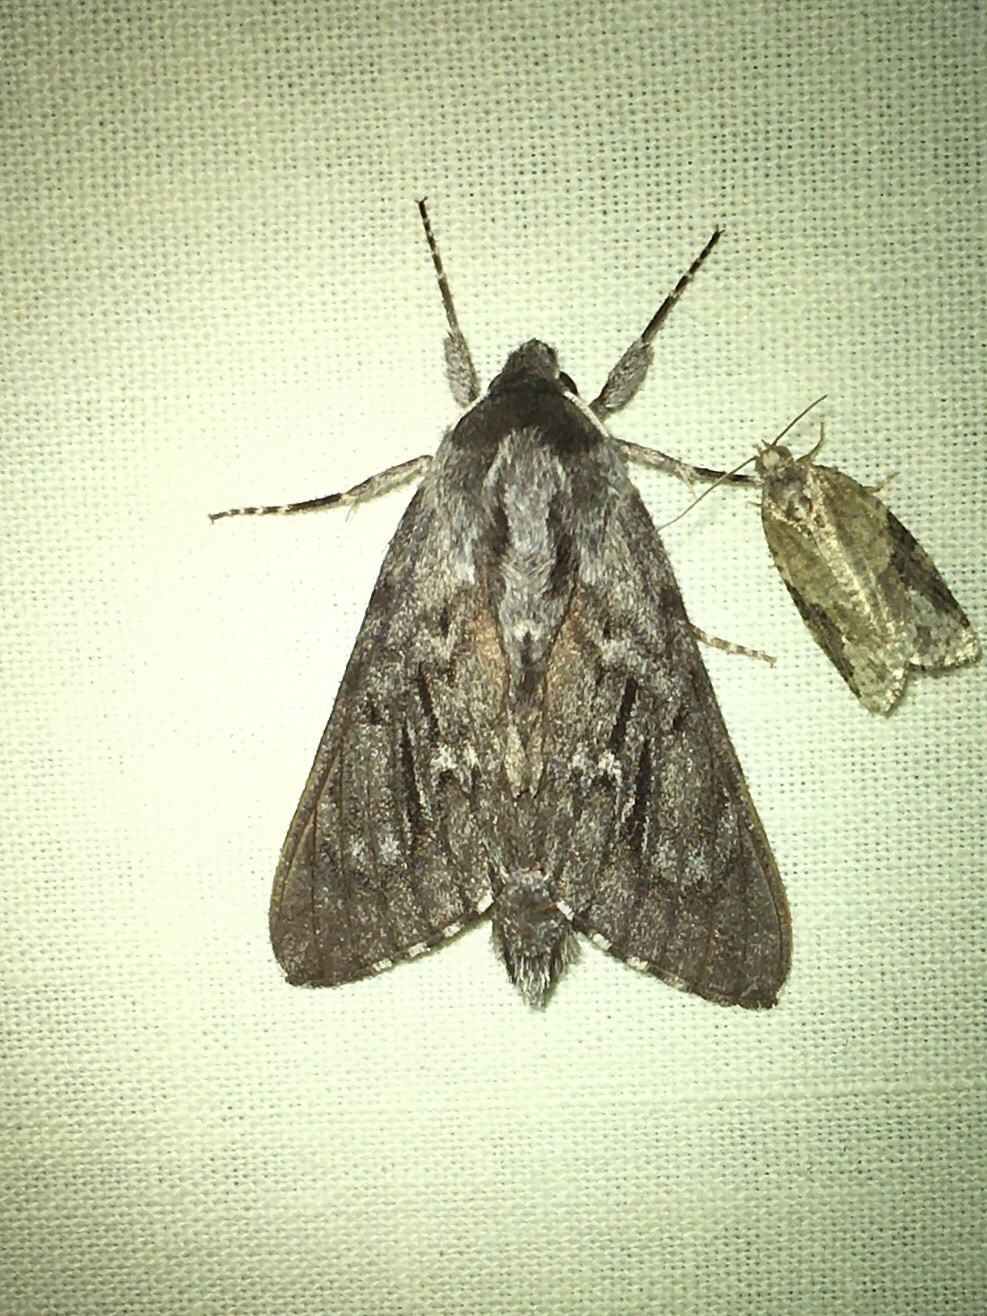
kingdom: Animalia
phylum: Arthropoda
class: Insecta
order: Lepidoptera
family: Sphingidae
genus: Lapara
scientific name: Lapara bombycoides
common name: Northern pine sphinx
